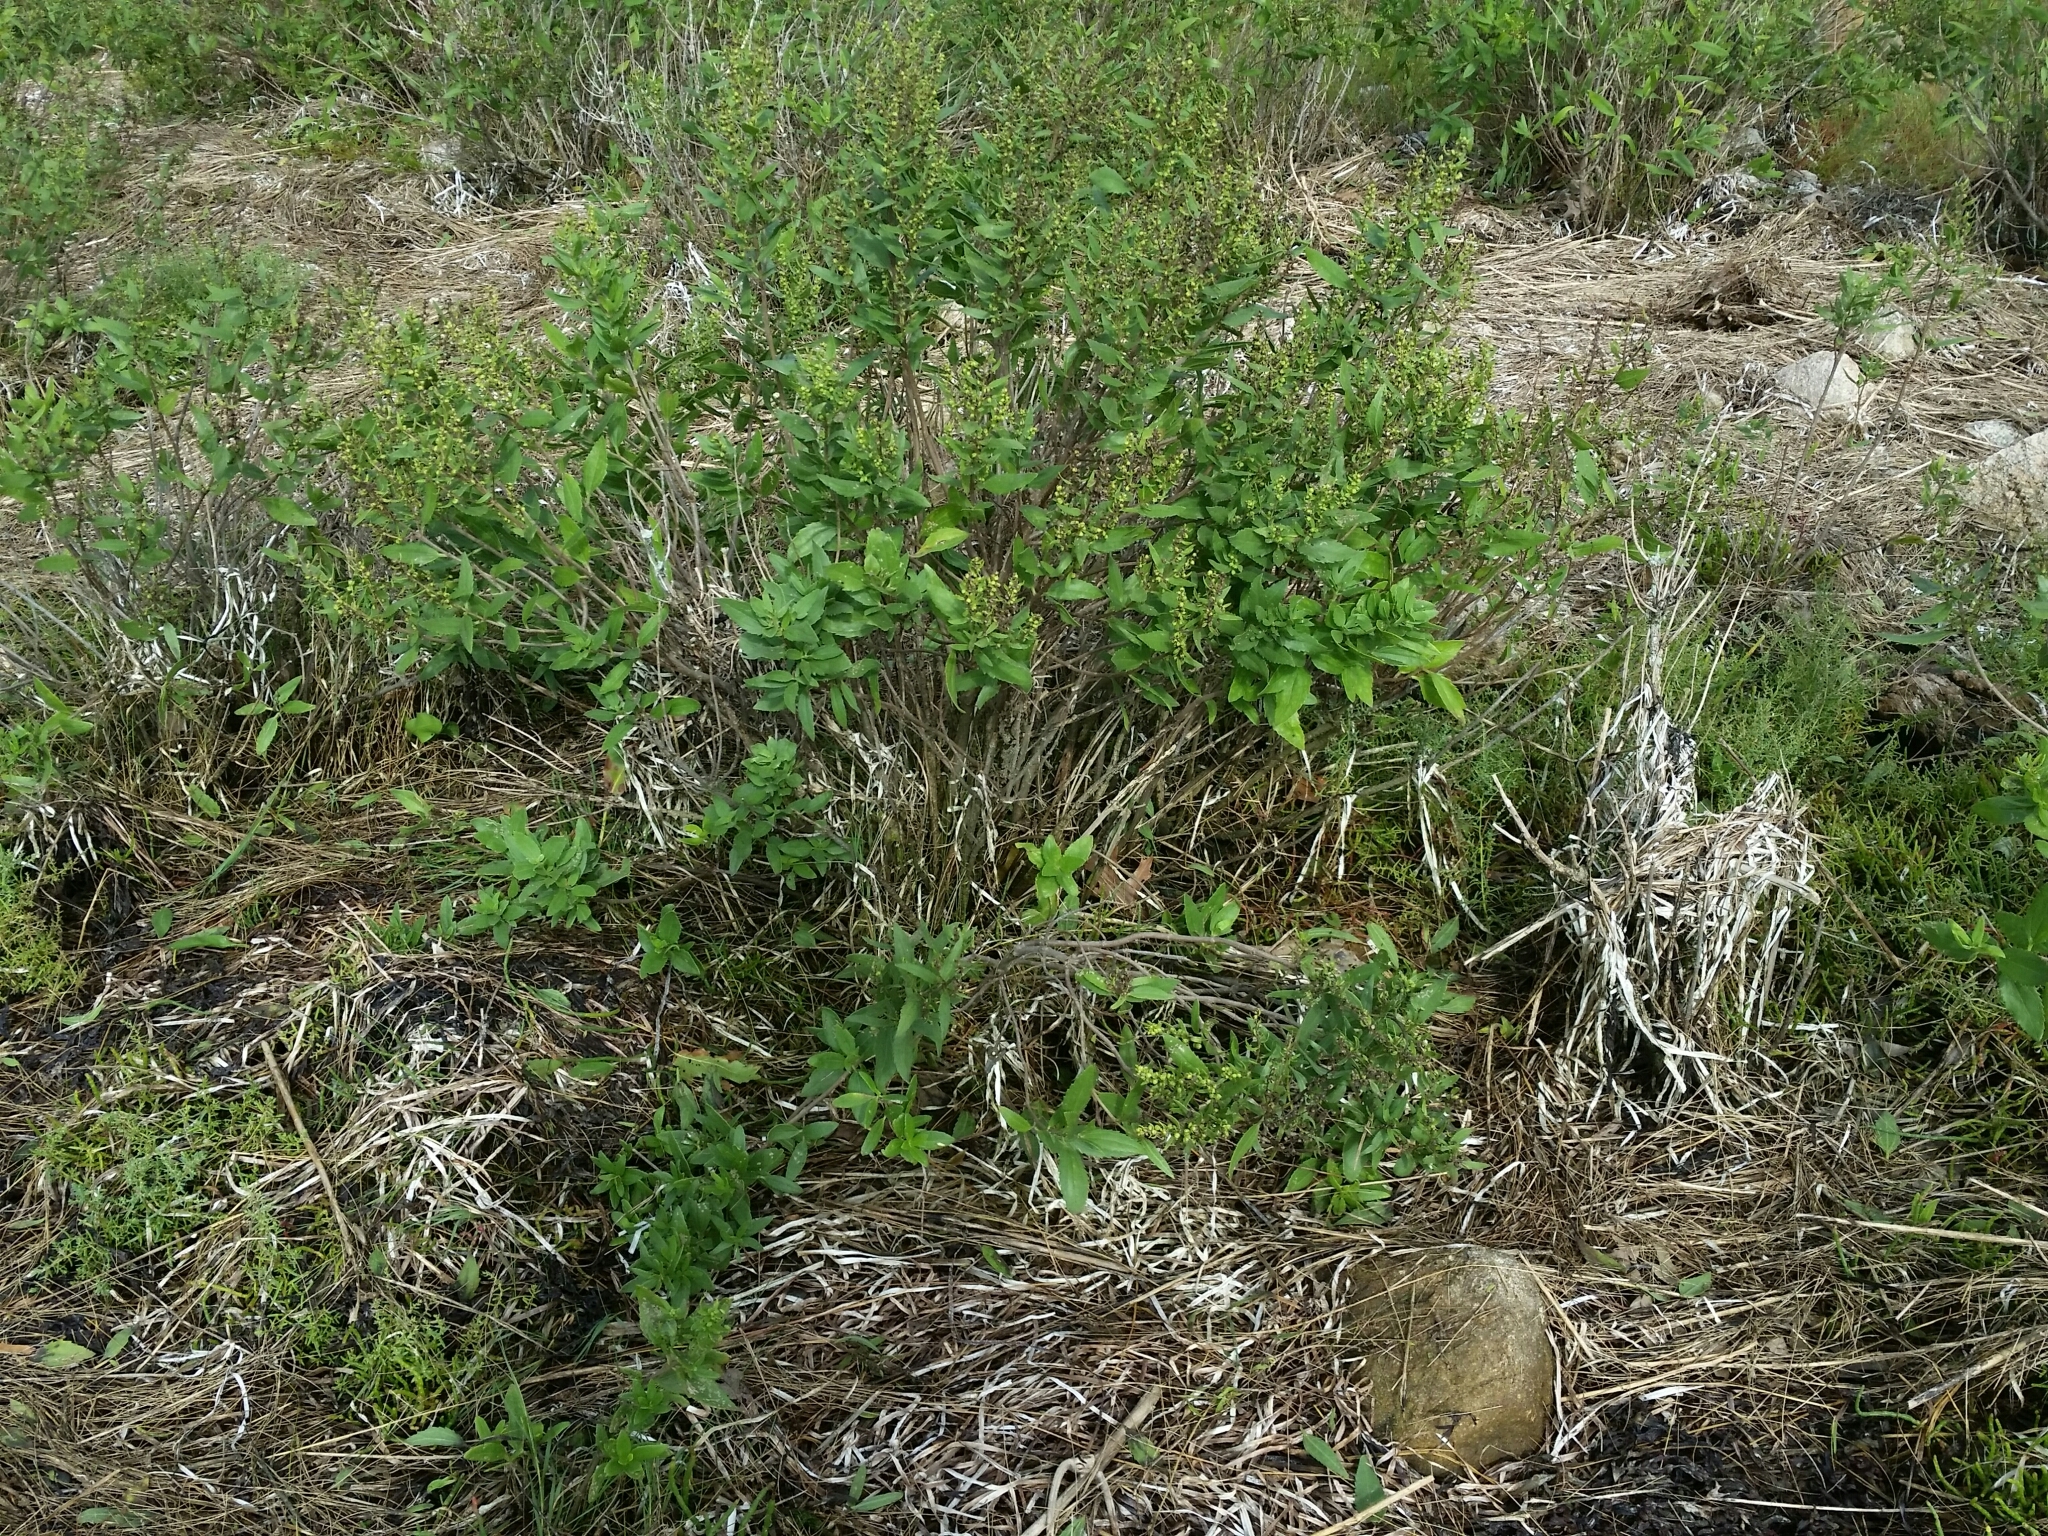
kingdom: Plantae
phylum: Tracheophyta
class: Magnoliopsida
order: Asterales
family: Asteraceae
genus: Iva
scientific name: Iva frutescens
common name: Big-leaved marsh-elder
